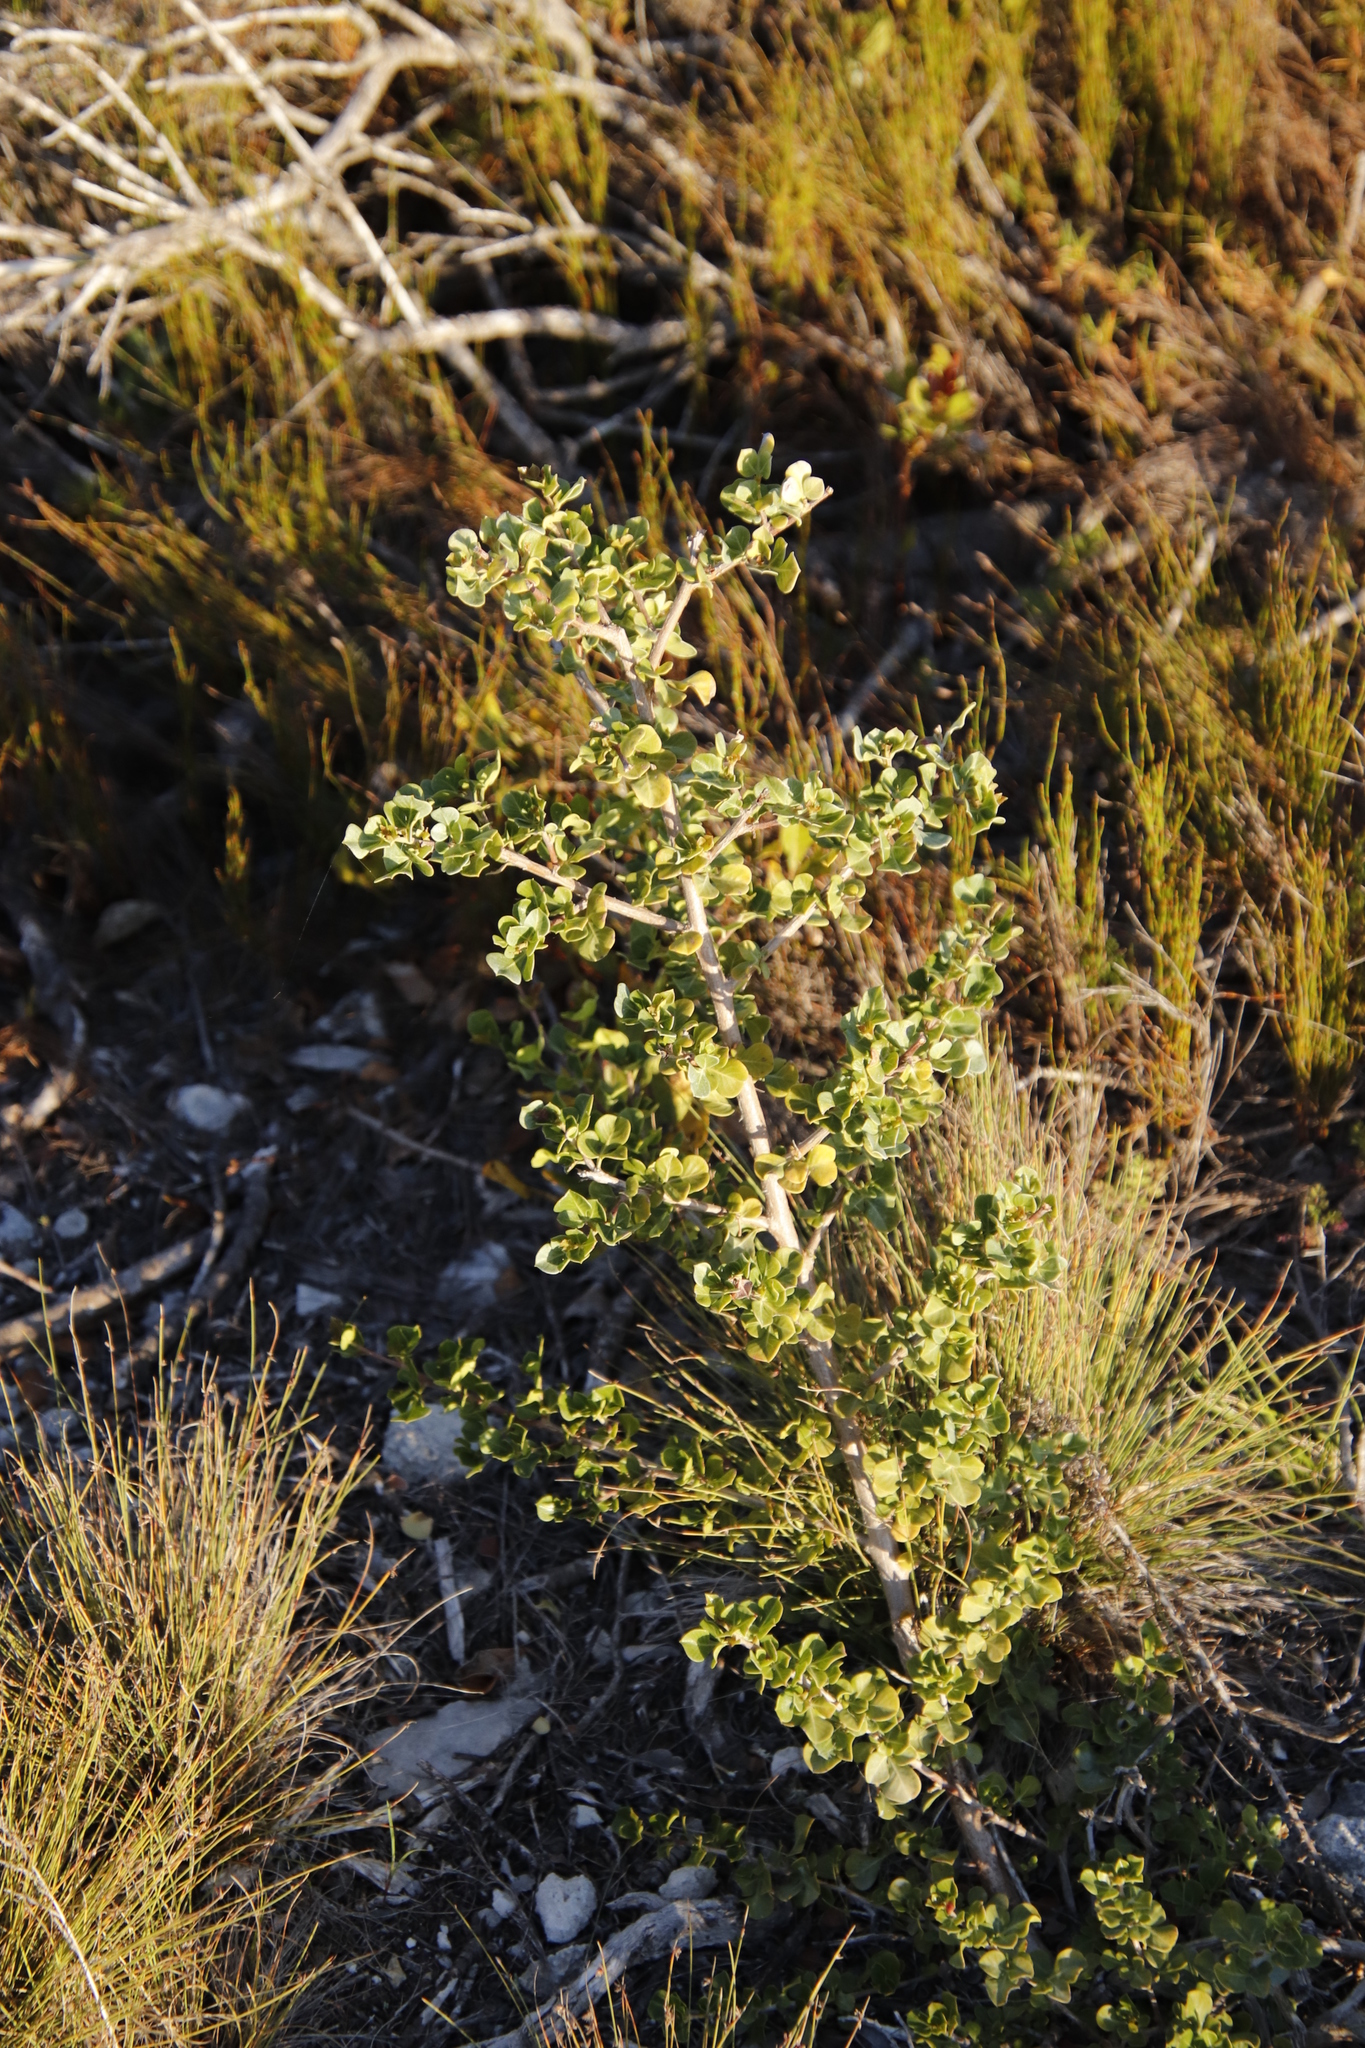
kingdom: Plantae
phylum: Tracheophyta
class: Magnoliopsida
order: Sapindales
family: Anacardiaceae
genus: Searsia
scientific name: Searsia glauca
